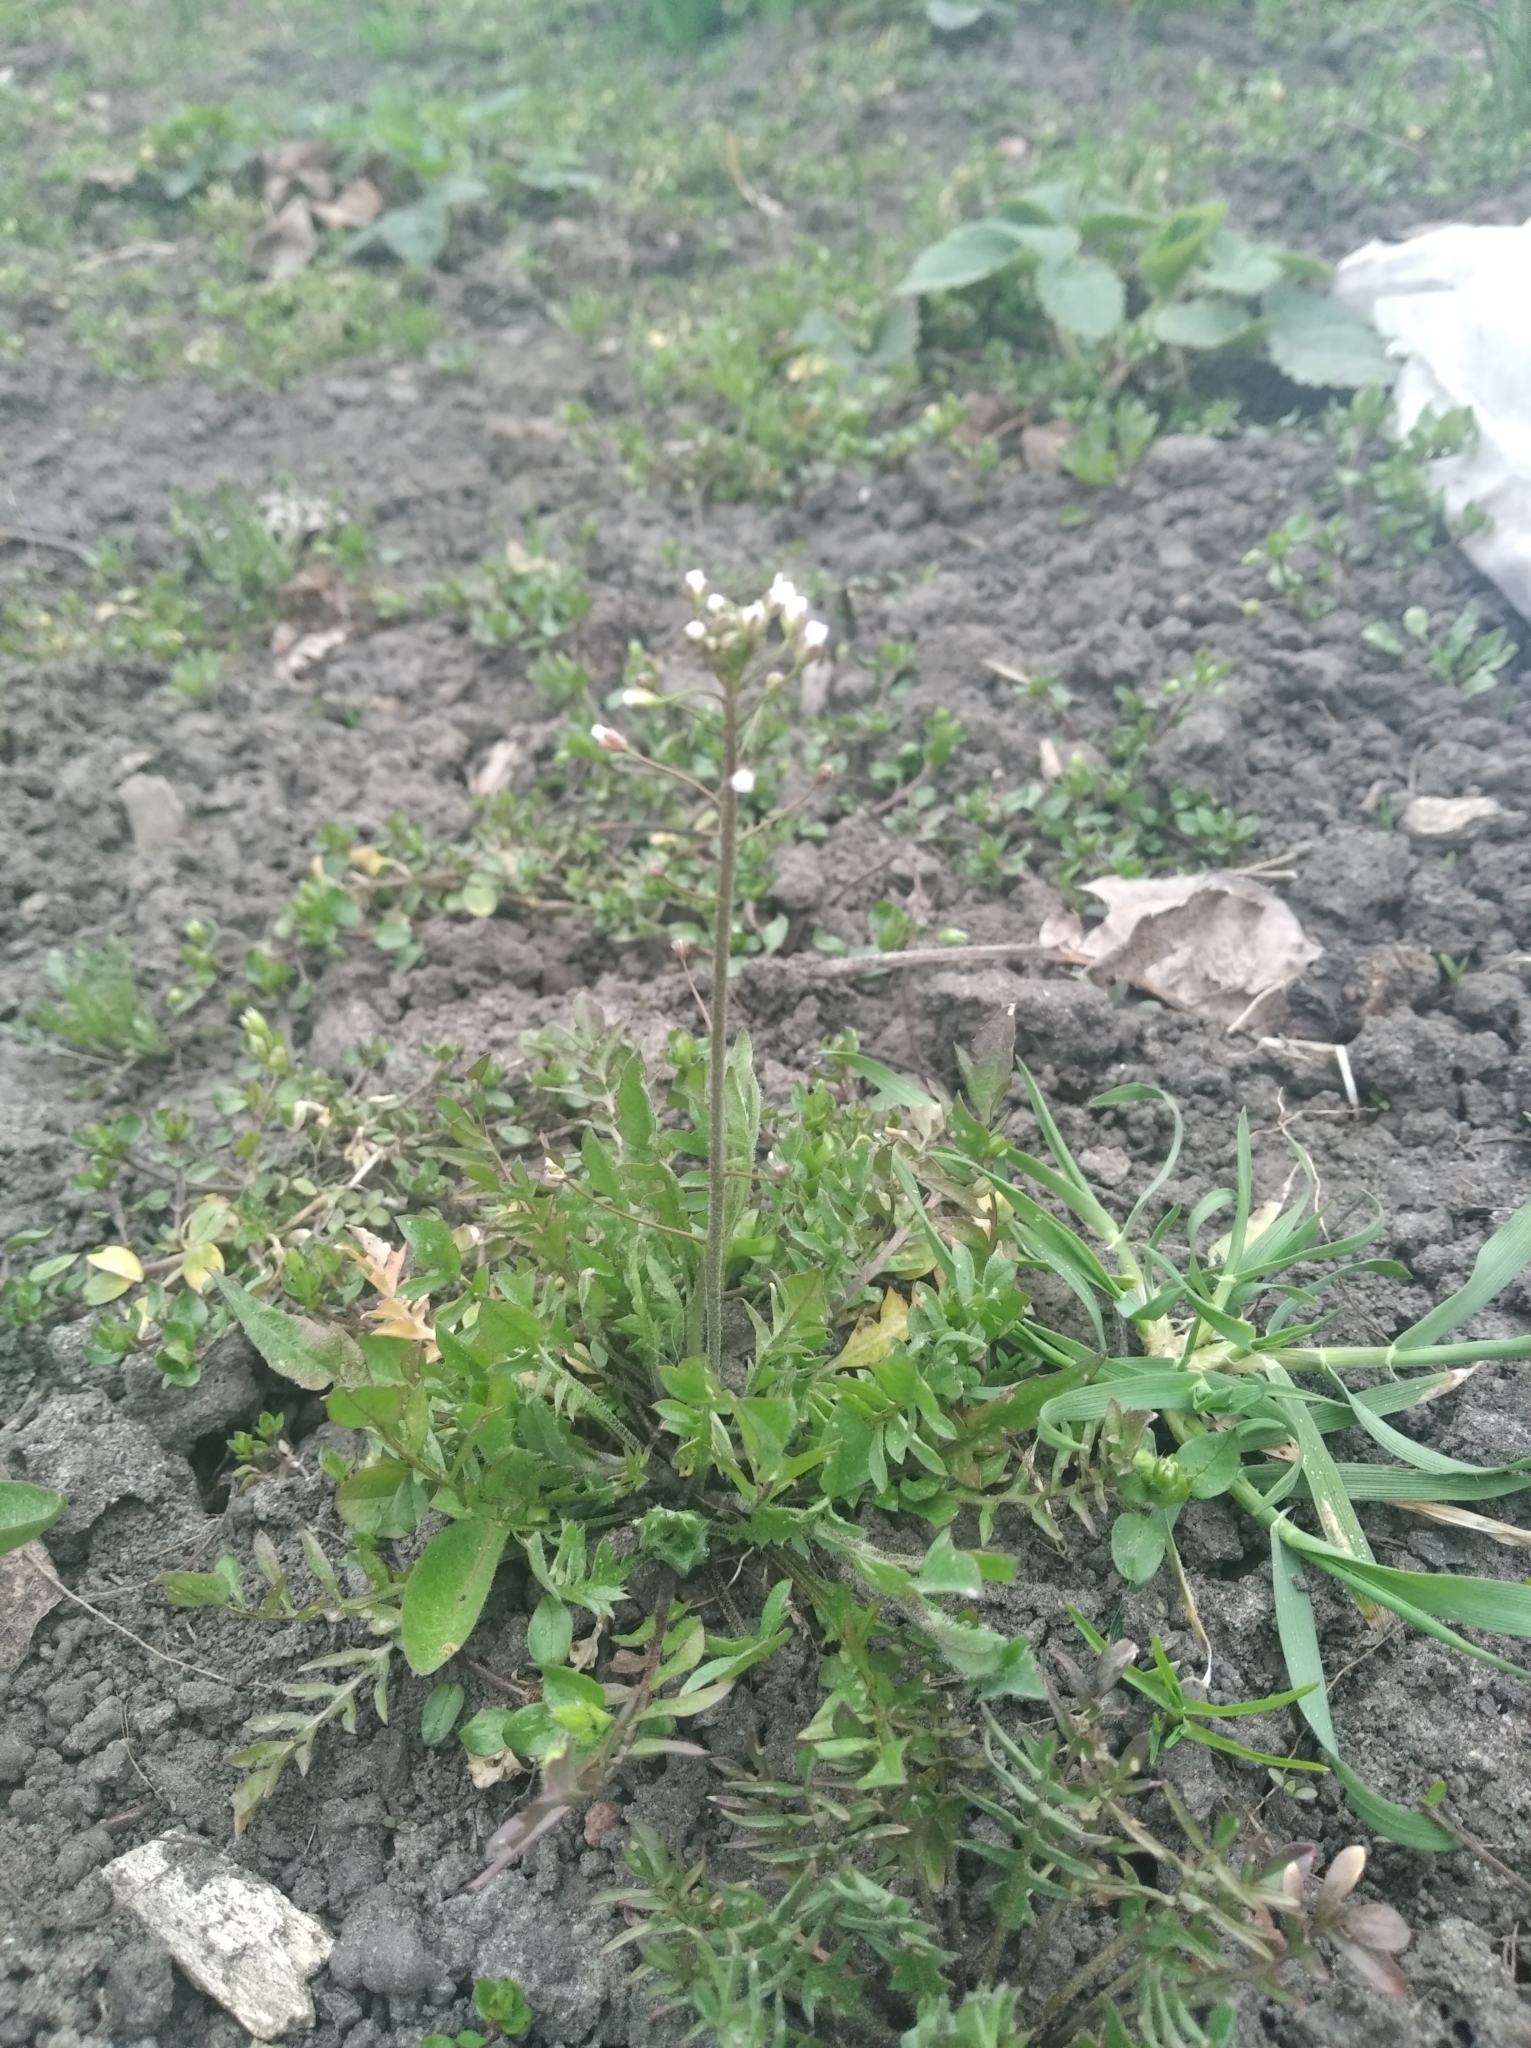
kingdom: Plantae
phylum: Tracheophyta
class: Magnoliopsida
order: Brassicales
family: Brassicaceae
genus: Capsella
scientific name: Capsella bursa-pastoris
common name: Shepherd's purse
